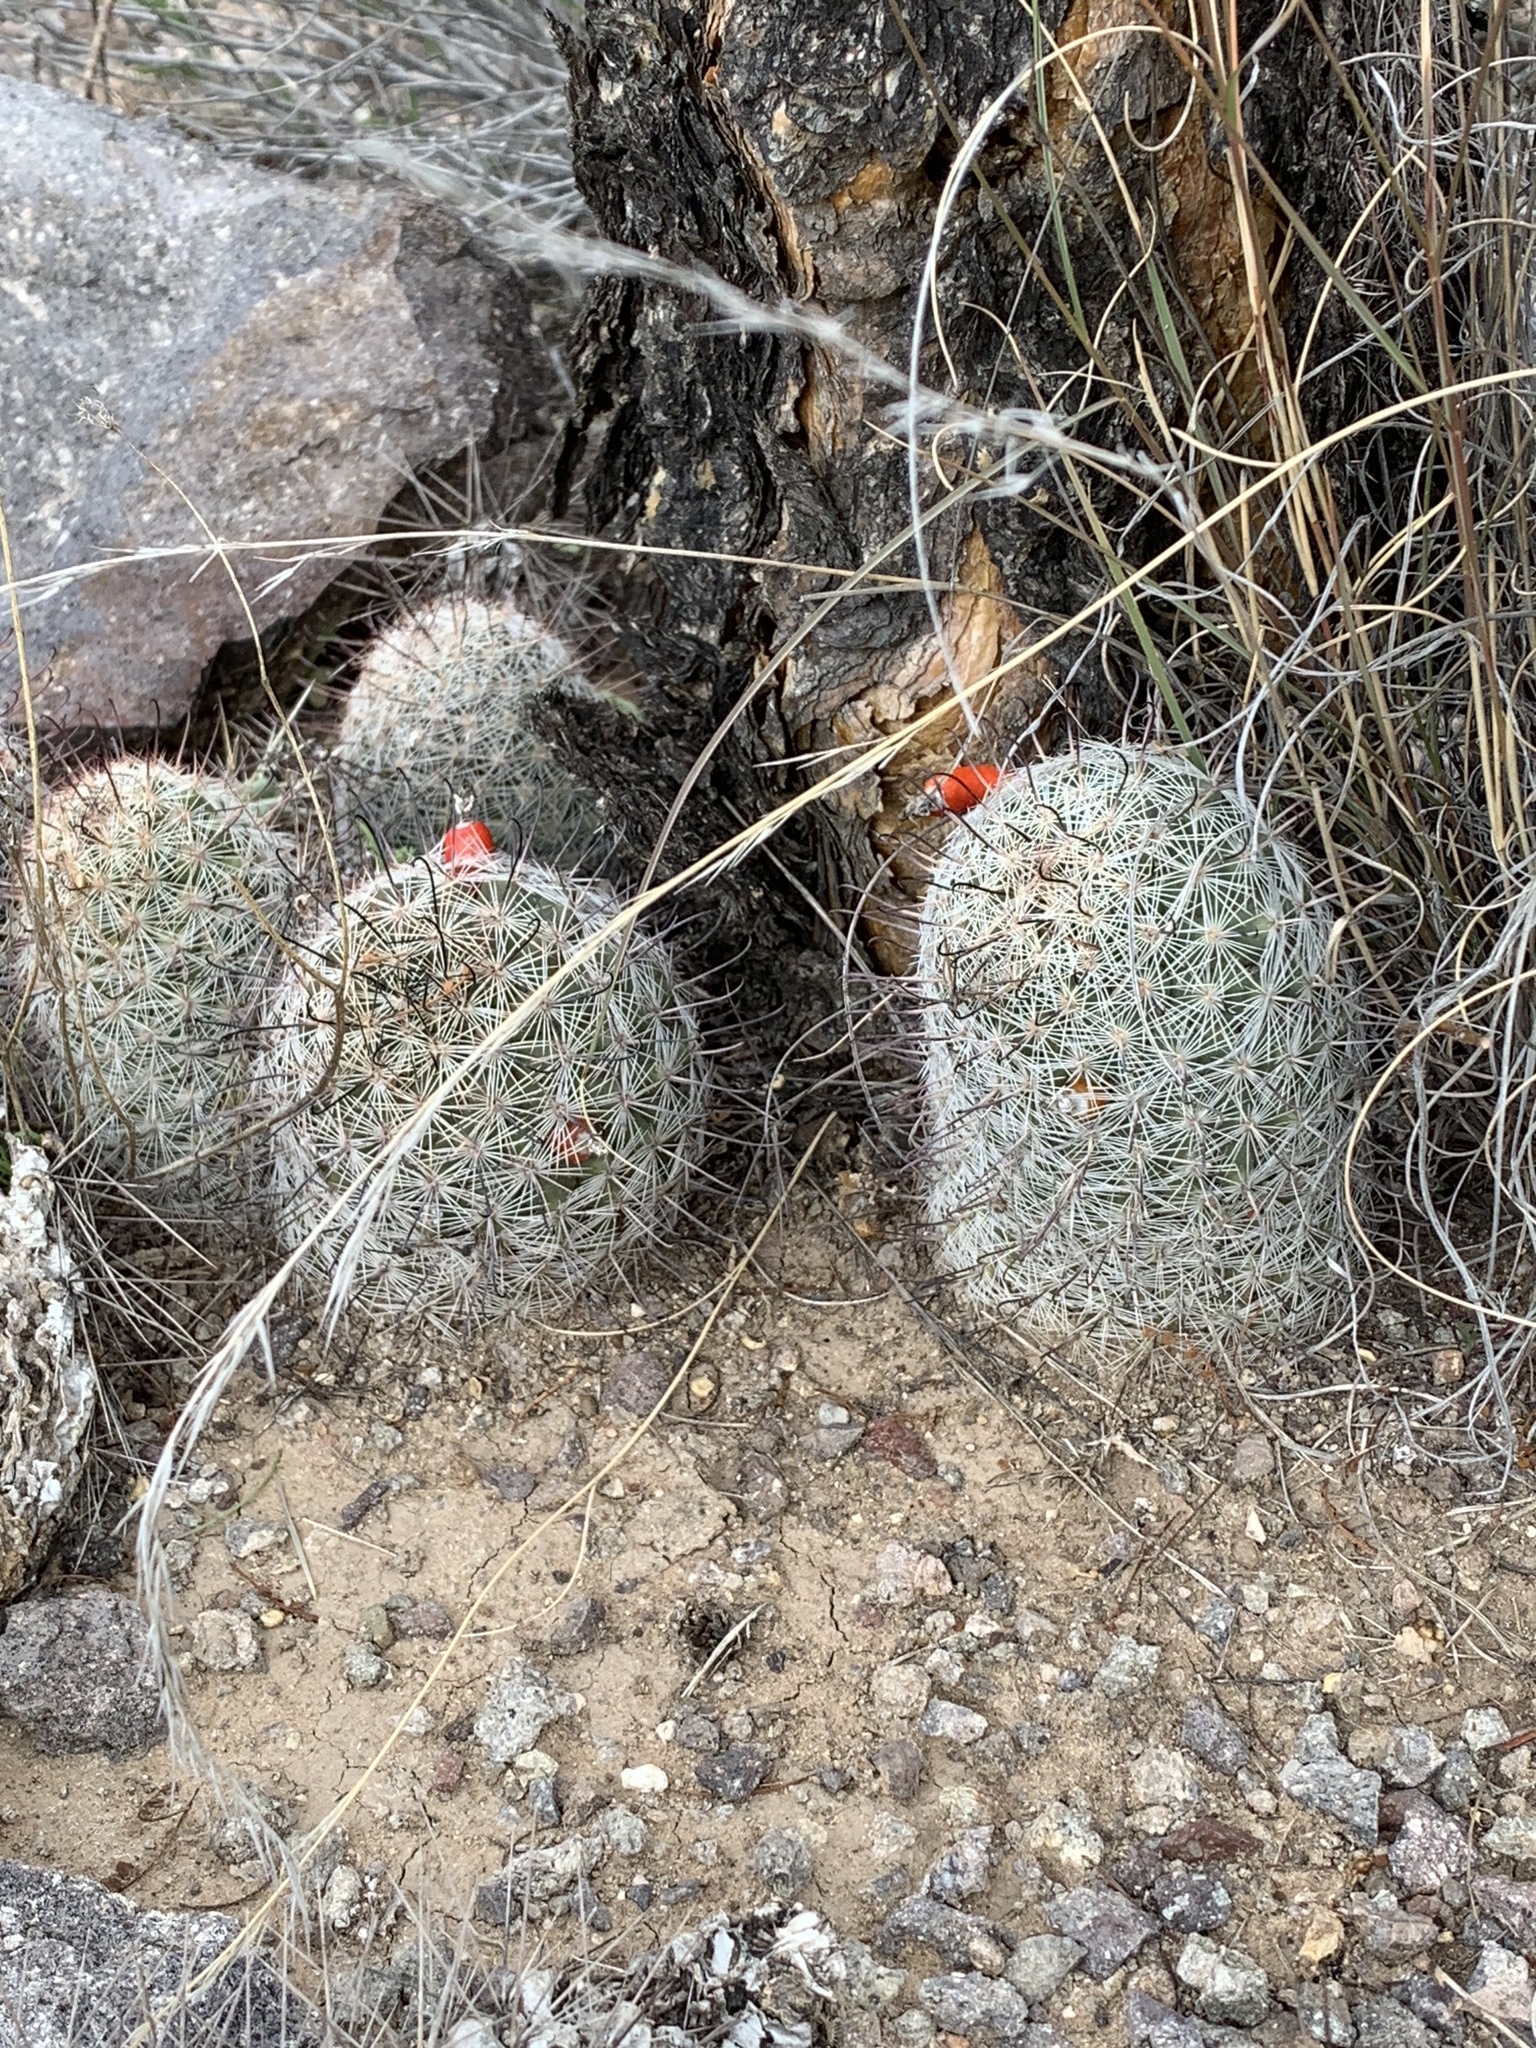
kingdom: Plantae
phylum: Tracheophyta
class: Magnoliopsida
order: Caryophyllales
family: Cactaceae
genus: Cochemiea
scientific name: Cochemiea grahamii
